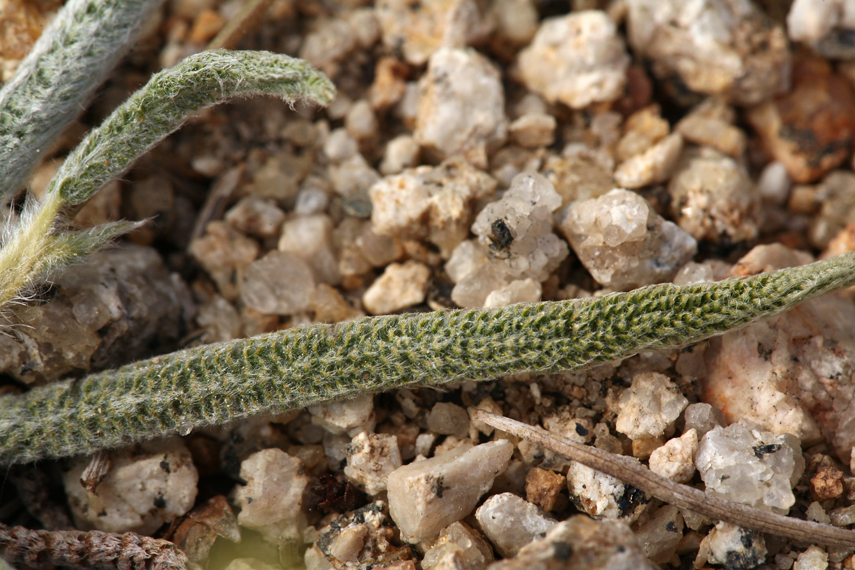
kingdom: Plantae
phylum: Tracheophyta
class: Magnoliopsida
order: Rosales
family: Rosaceae
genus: Potentilla
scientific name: Potentilla santolinoides
